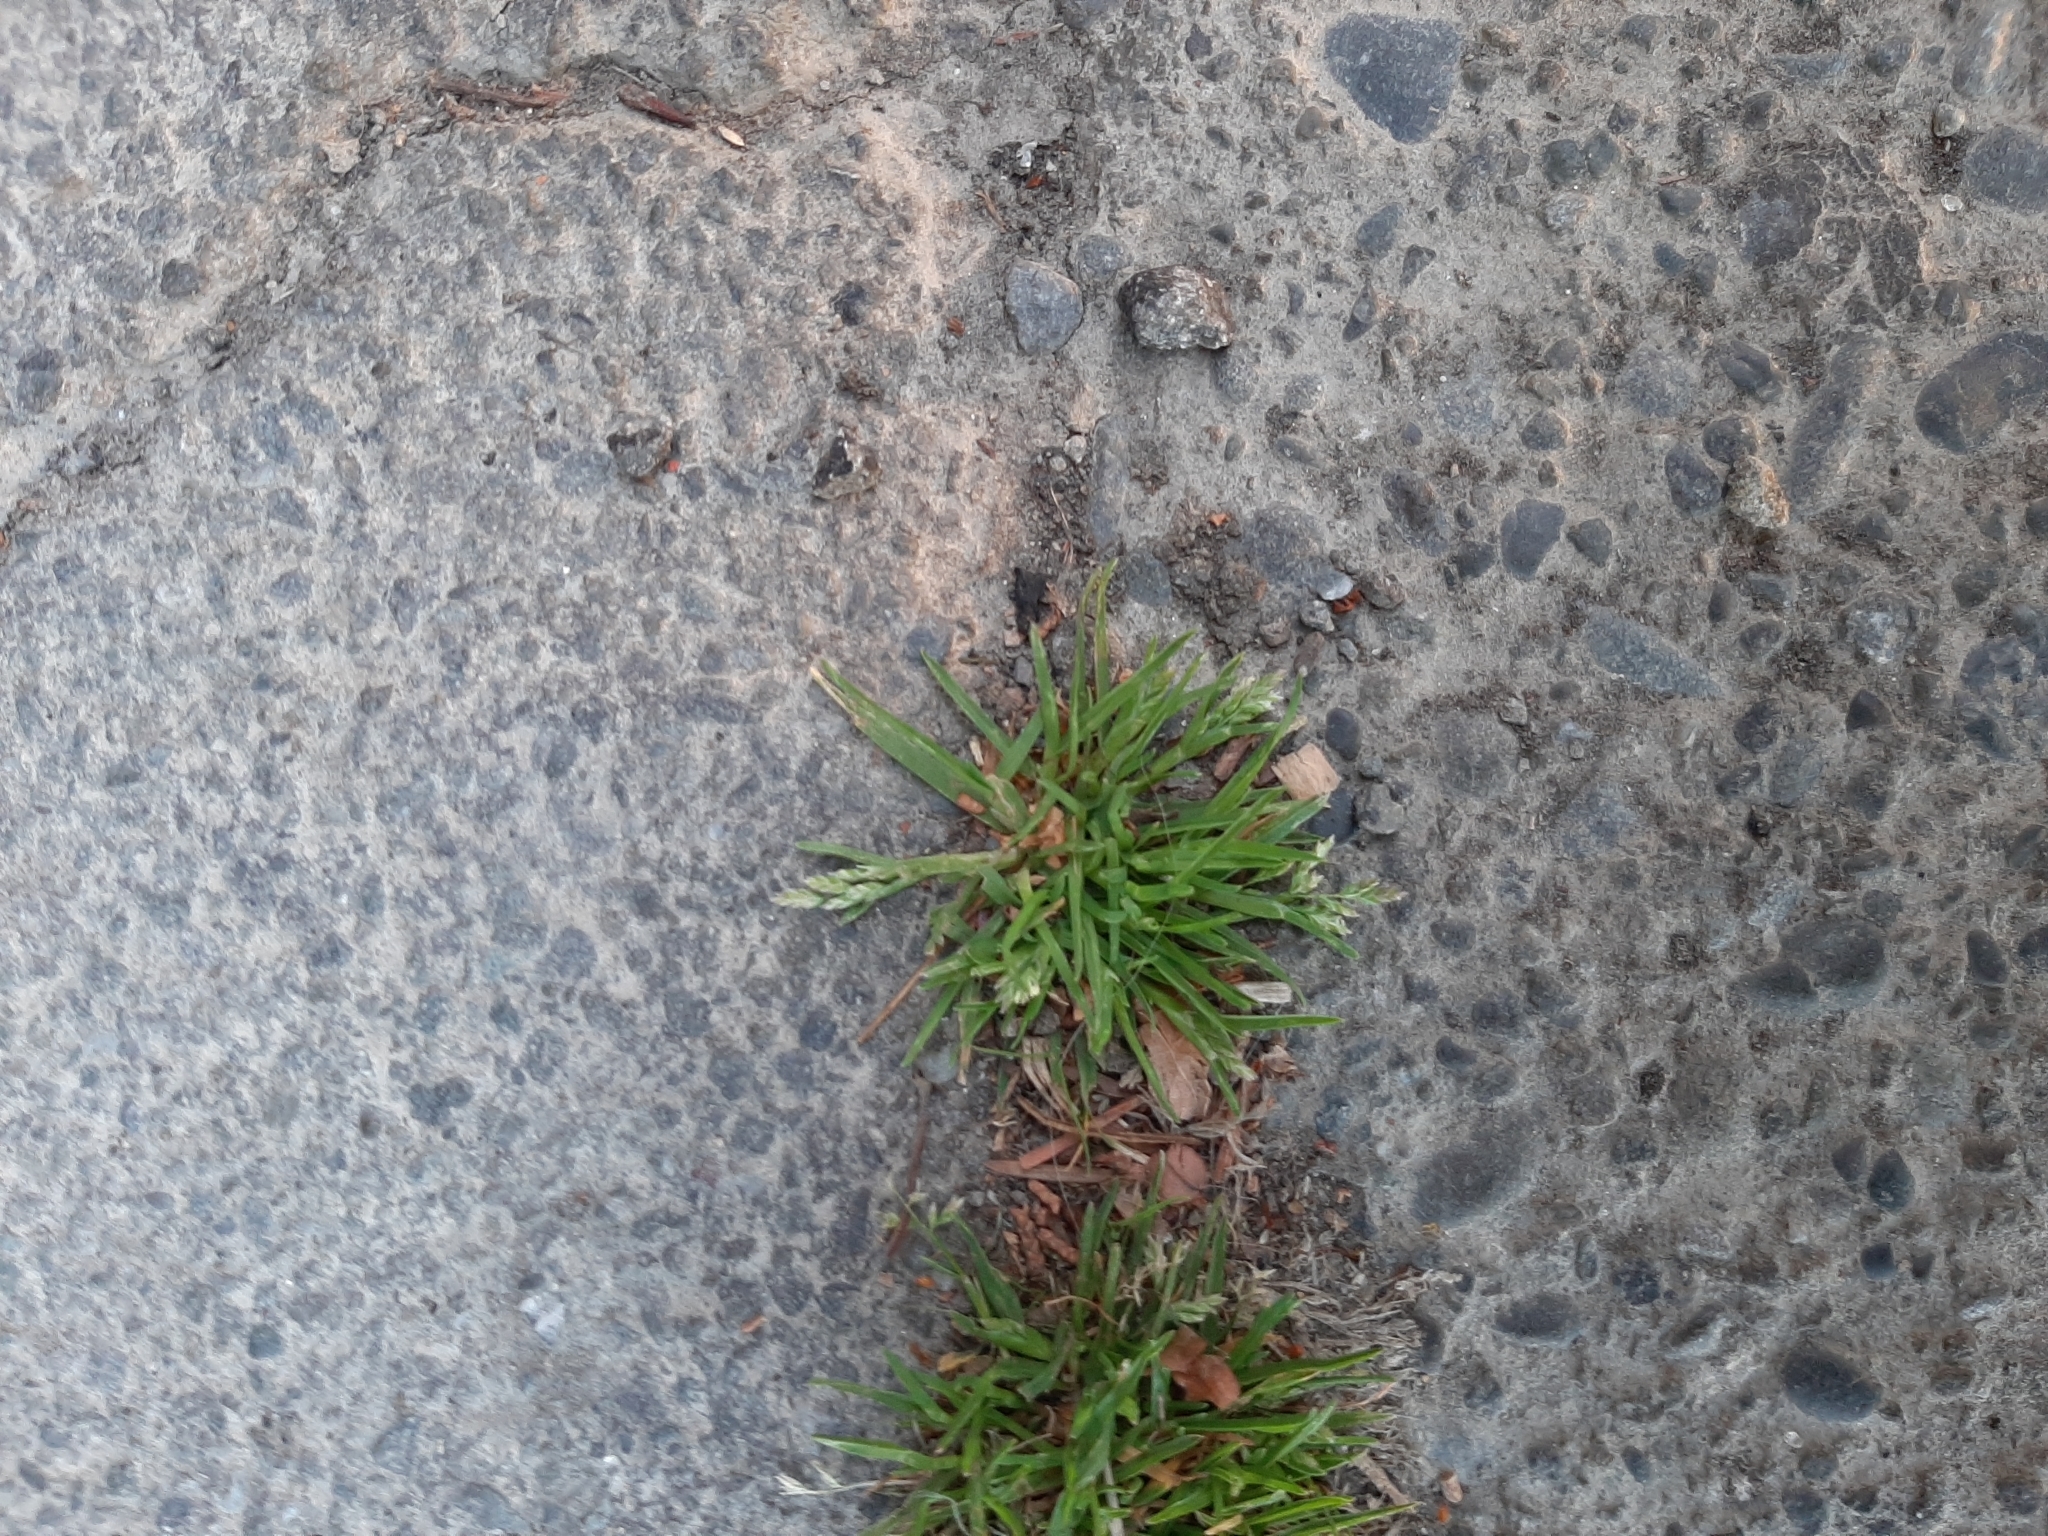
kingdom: Plantae
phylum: Tracheophyta
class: Liliopsida
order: Poales
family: Poaceae
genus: Poa
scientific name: Poa annua
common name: Annual bluegrass
